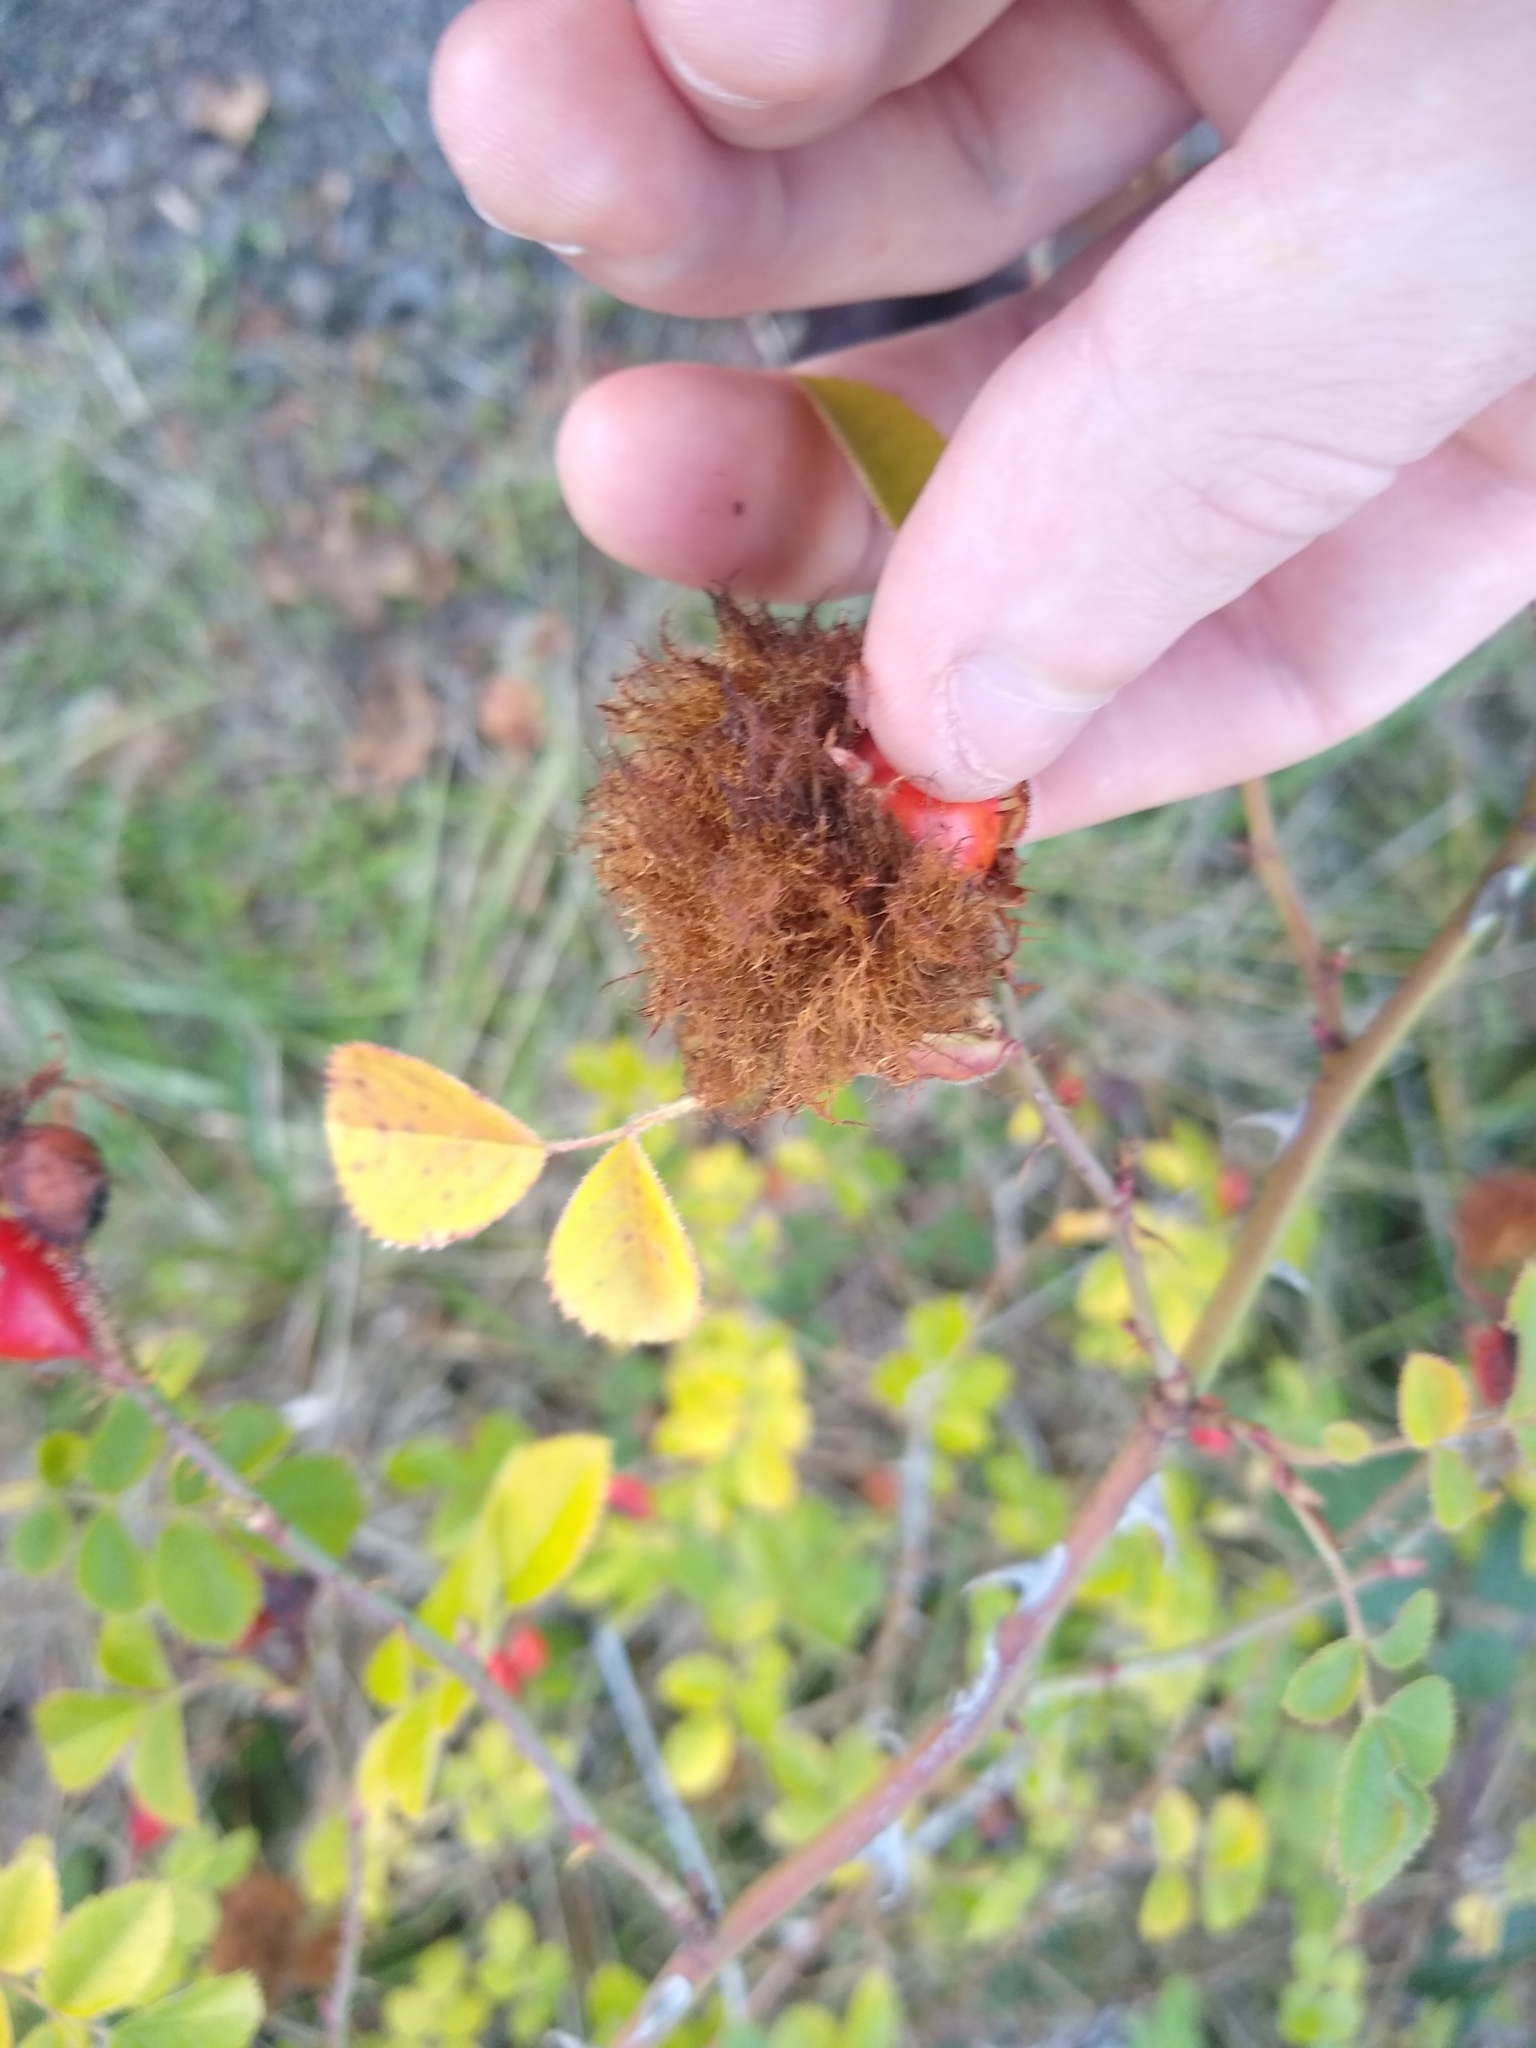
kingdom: Animalia
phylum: Arthropoda
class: Insecta
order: Hymenoptera
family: Cynipidae
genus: Diplolepis
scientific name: Diplolepis rosae
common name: Bedeguar gall
